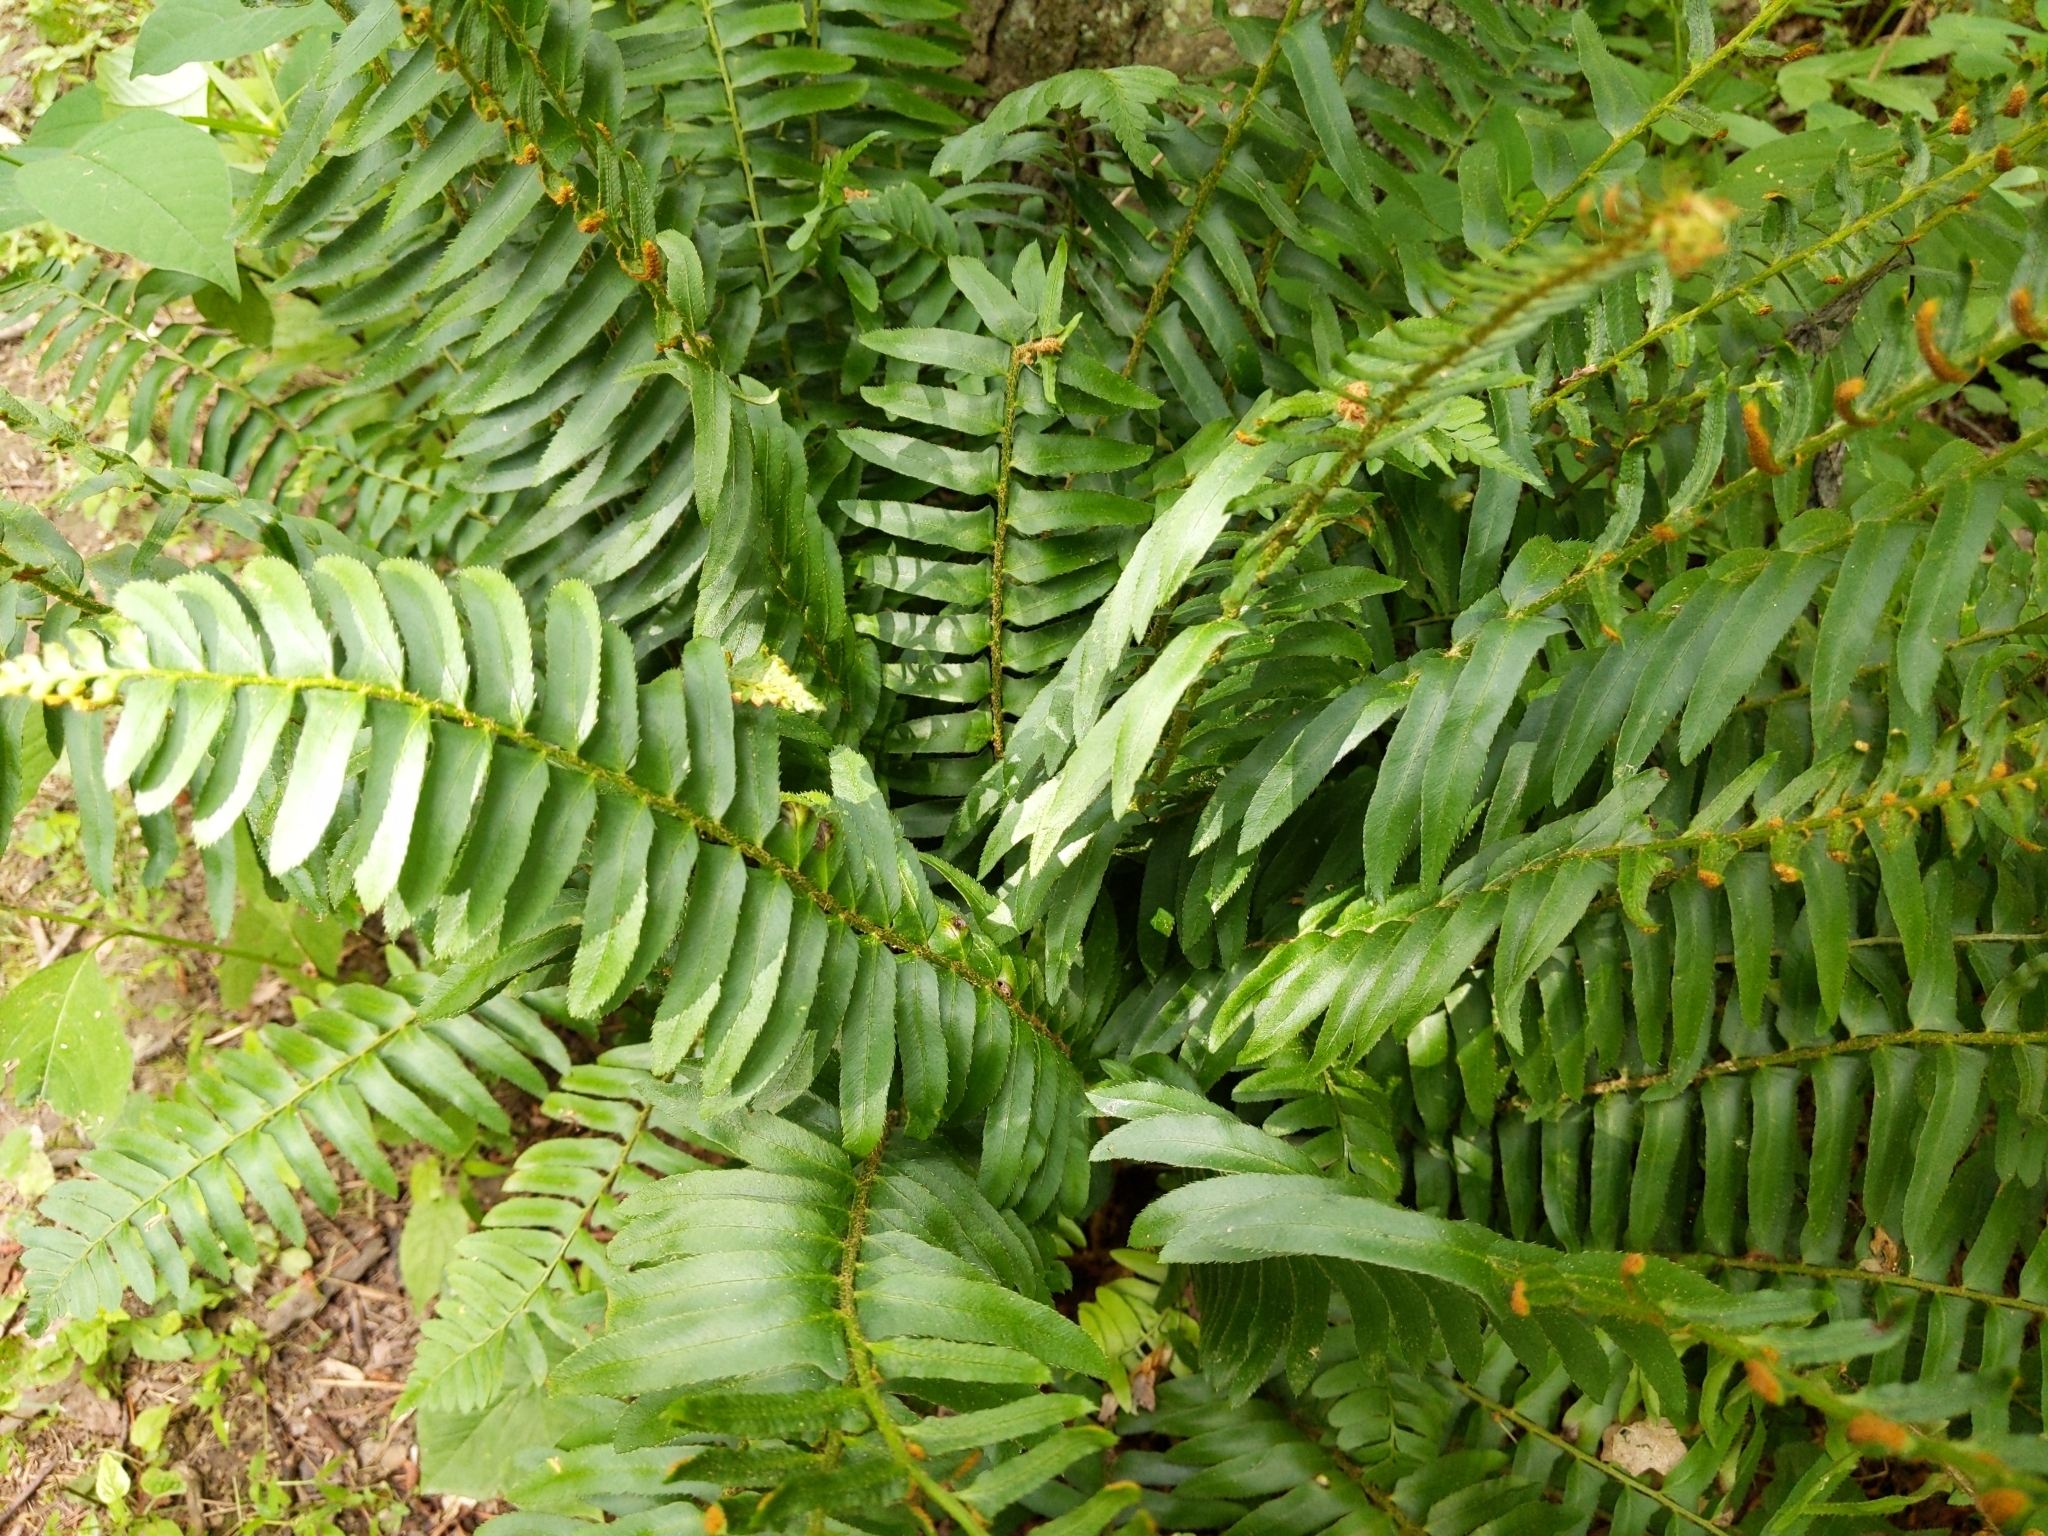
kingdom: Plantae
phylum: Tracheophyta
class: Polypodiopsida
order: Polypodiales
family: Dryopteridaceae
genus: Polystichum
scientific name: Polystichum acrostichoides
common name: Christmas fern
